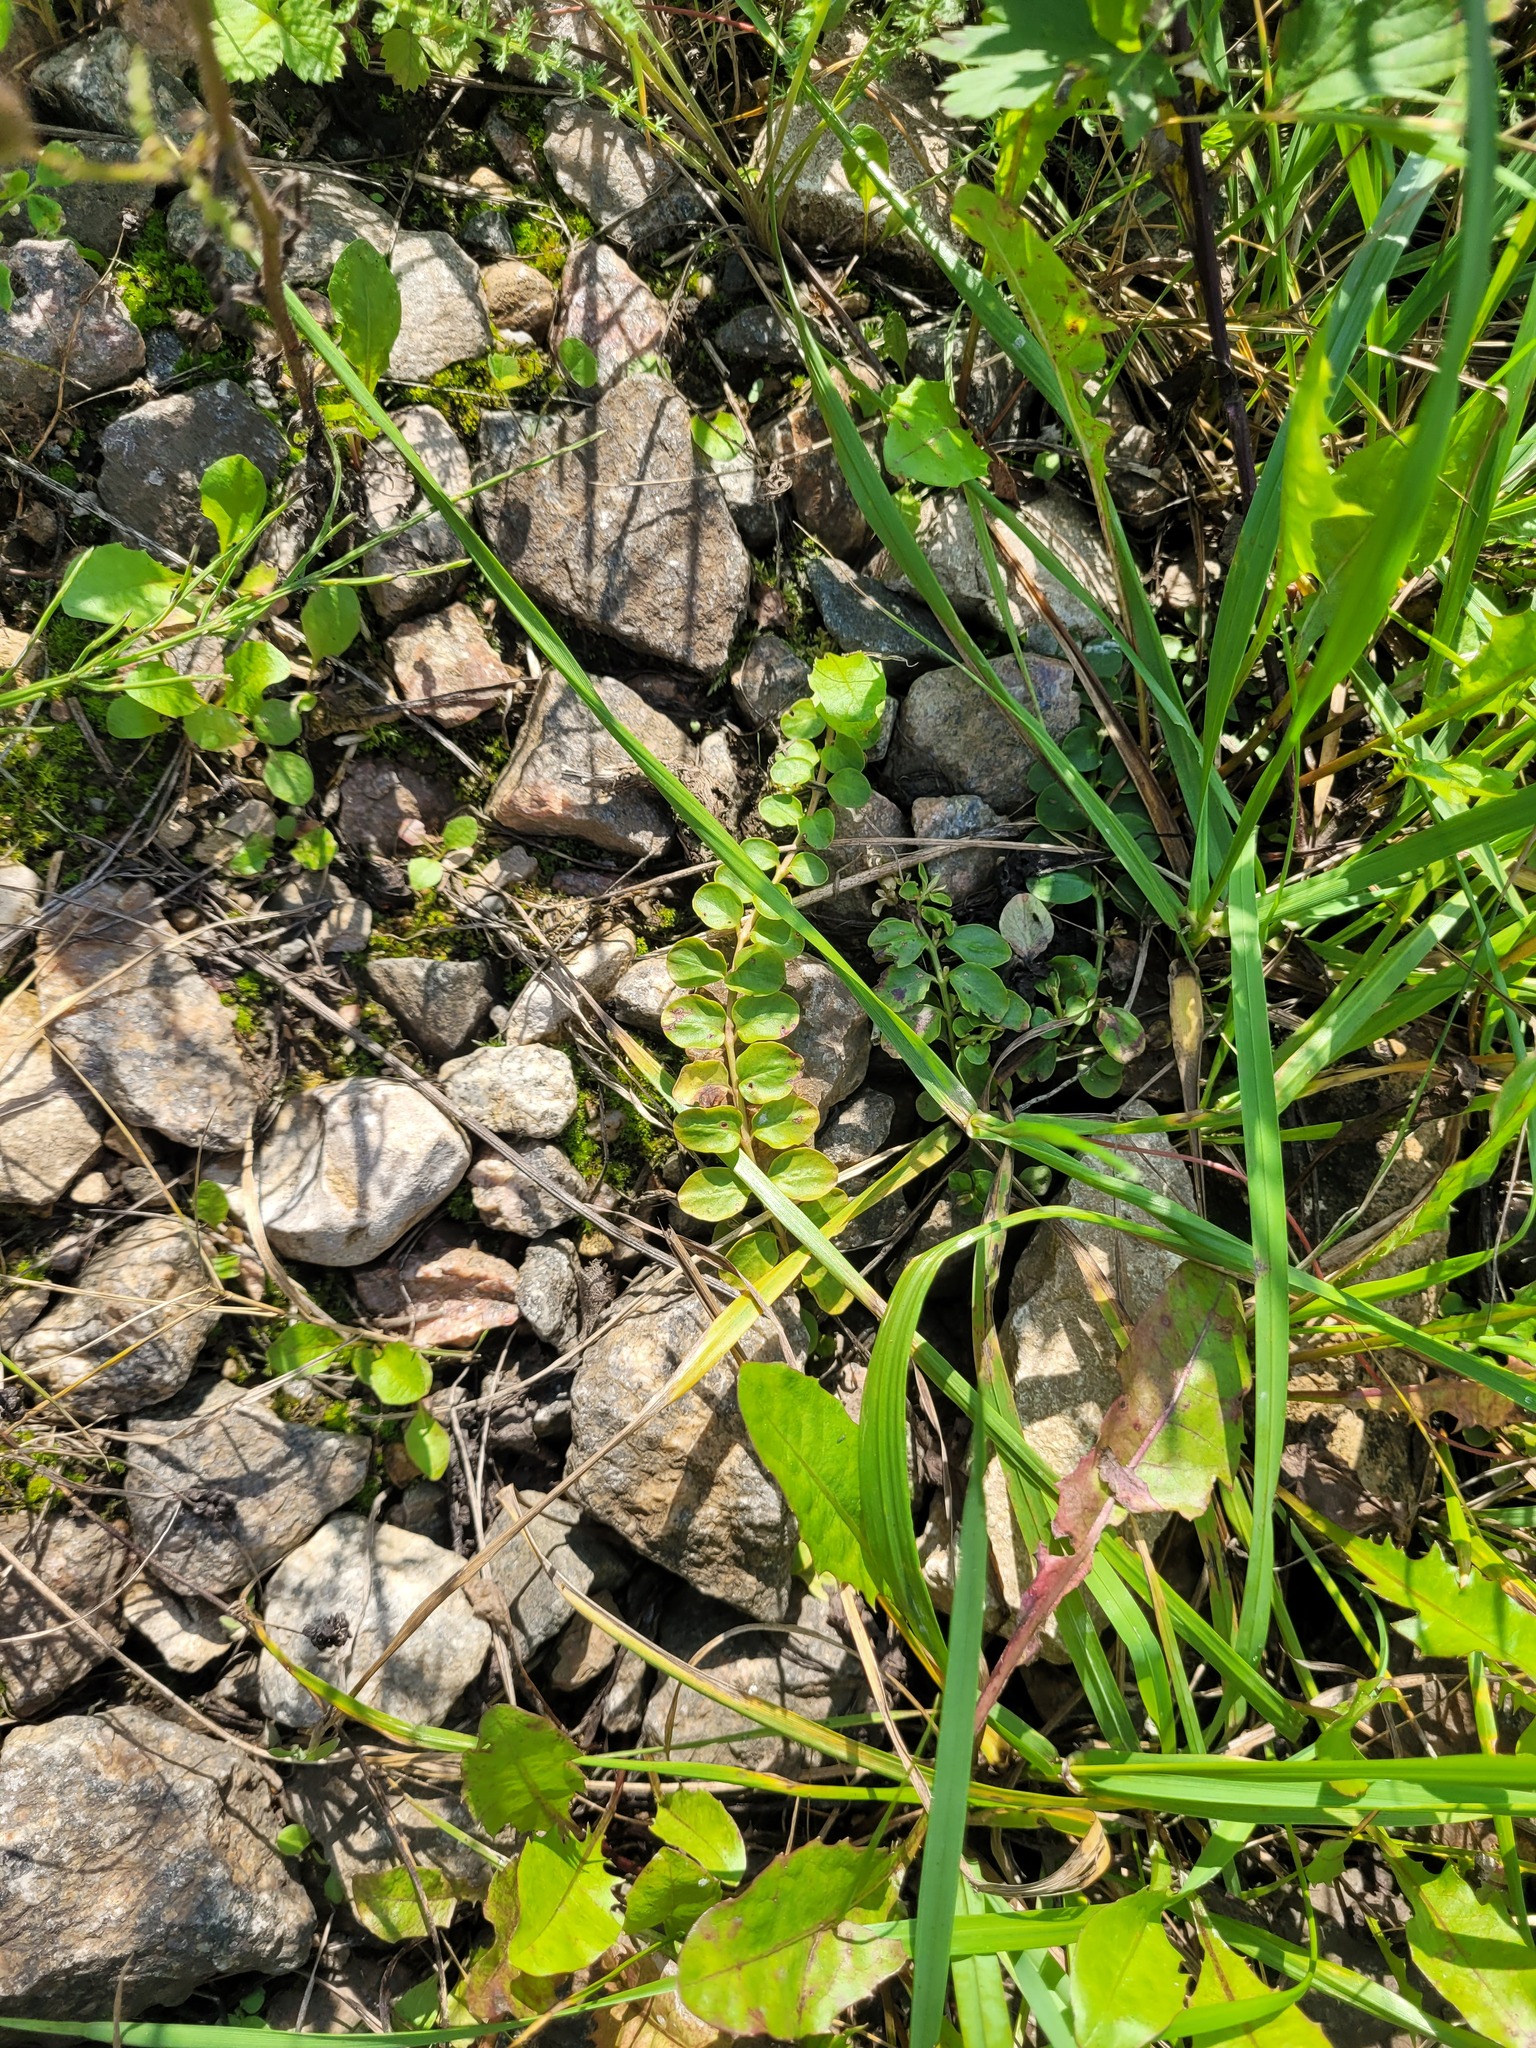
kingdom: Plantae
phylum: Tracheophyta
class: Magnoliopsida
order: Ericales
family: Primulaceae
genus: Lysimachia
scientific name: Lysimachia nummularia
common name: Moneywort
